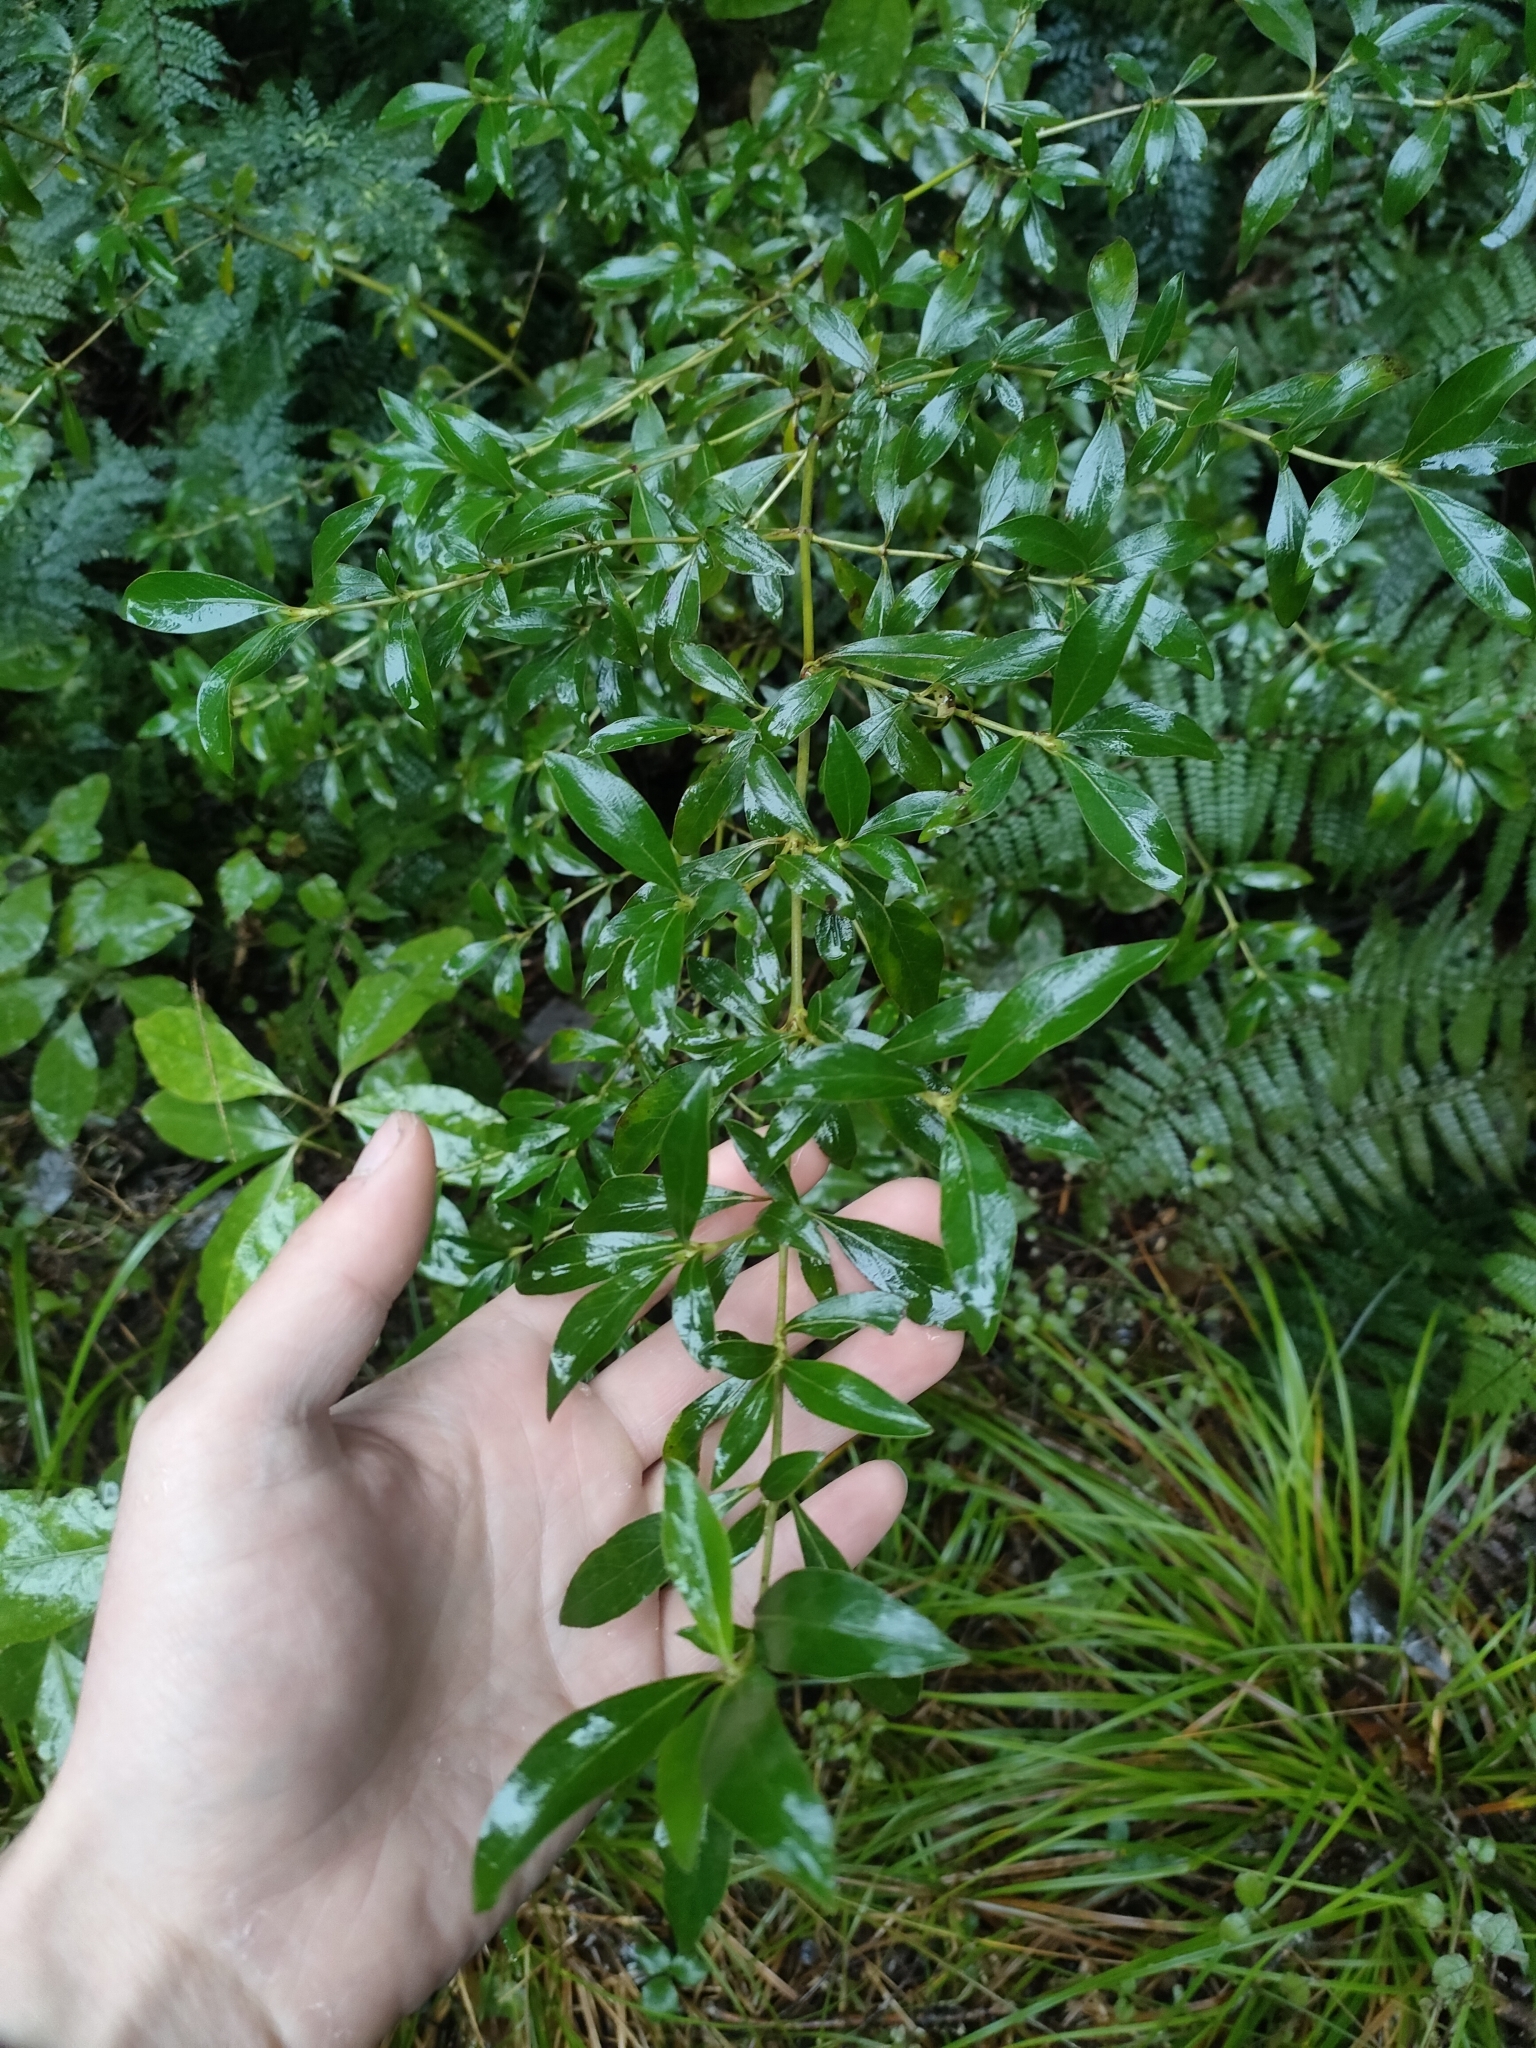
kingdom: Plantae
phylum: Tracheophyta
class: Magnoliopsida
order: Gentianales
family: Rubiaceae
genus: Coprosma
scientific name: Coprosma cunninghamii
